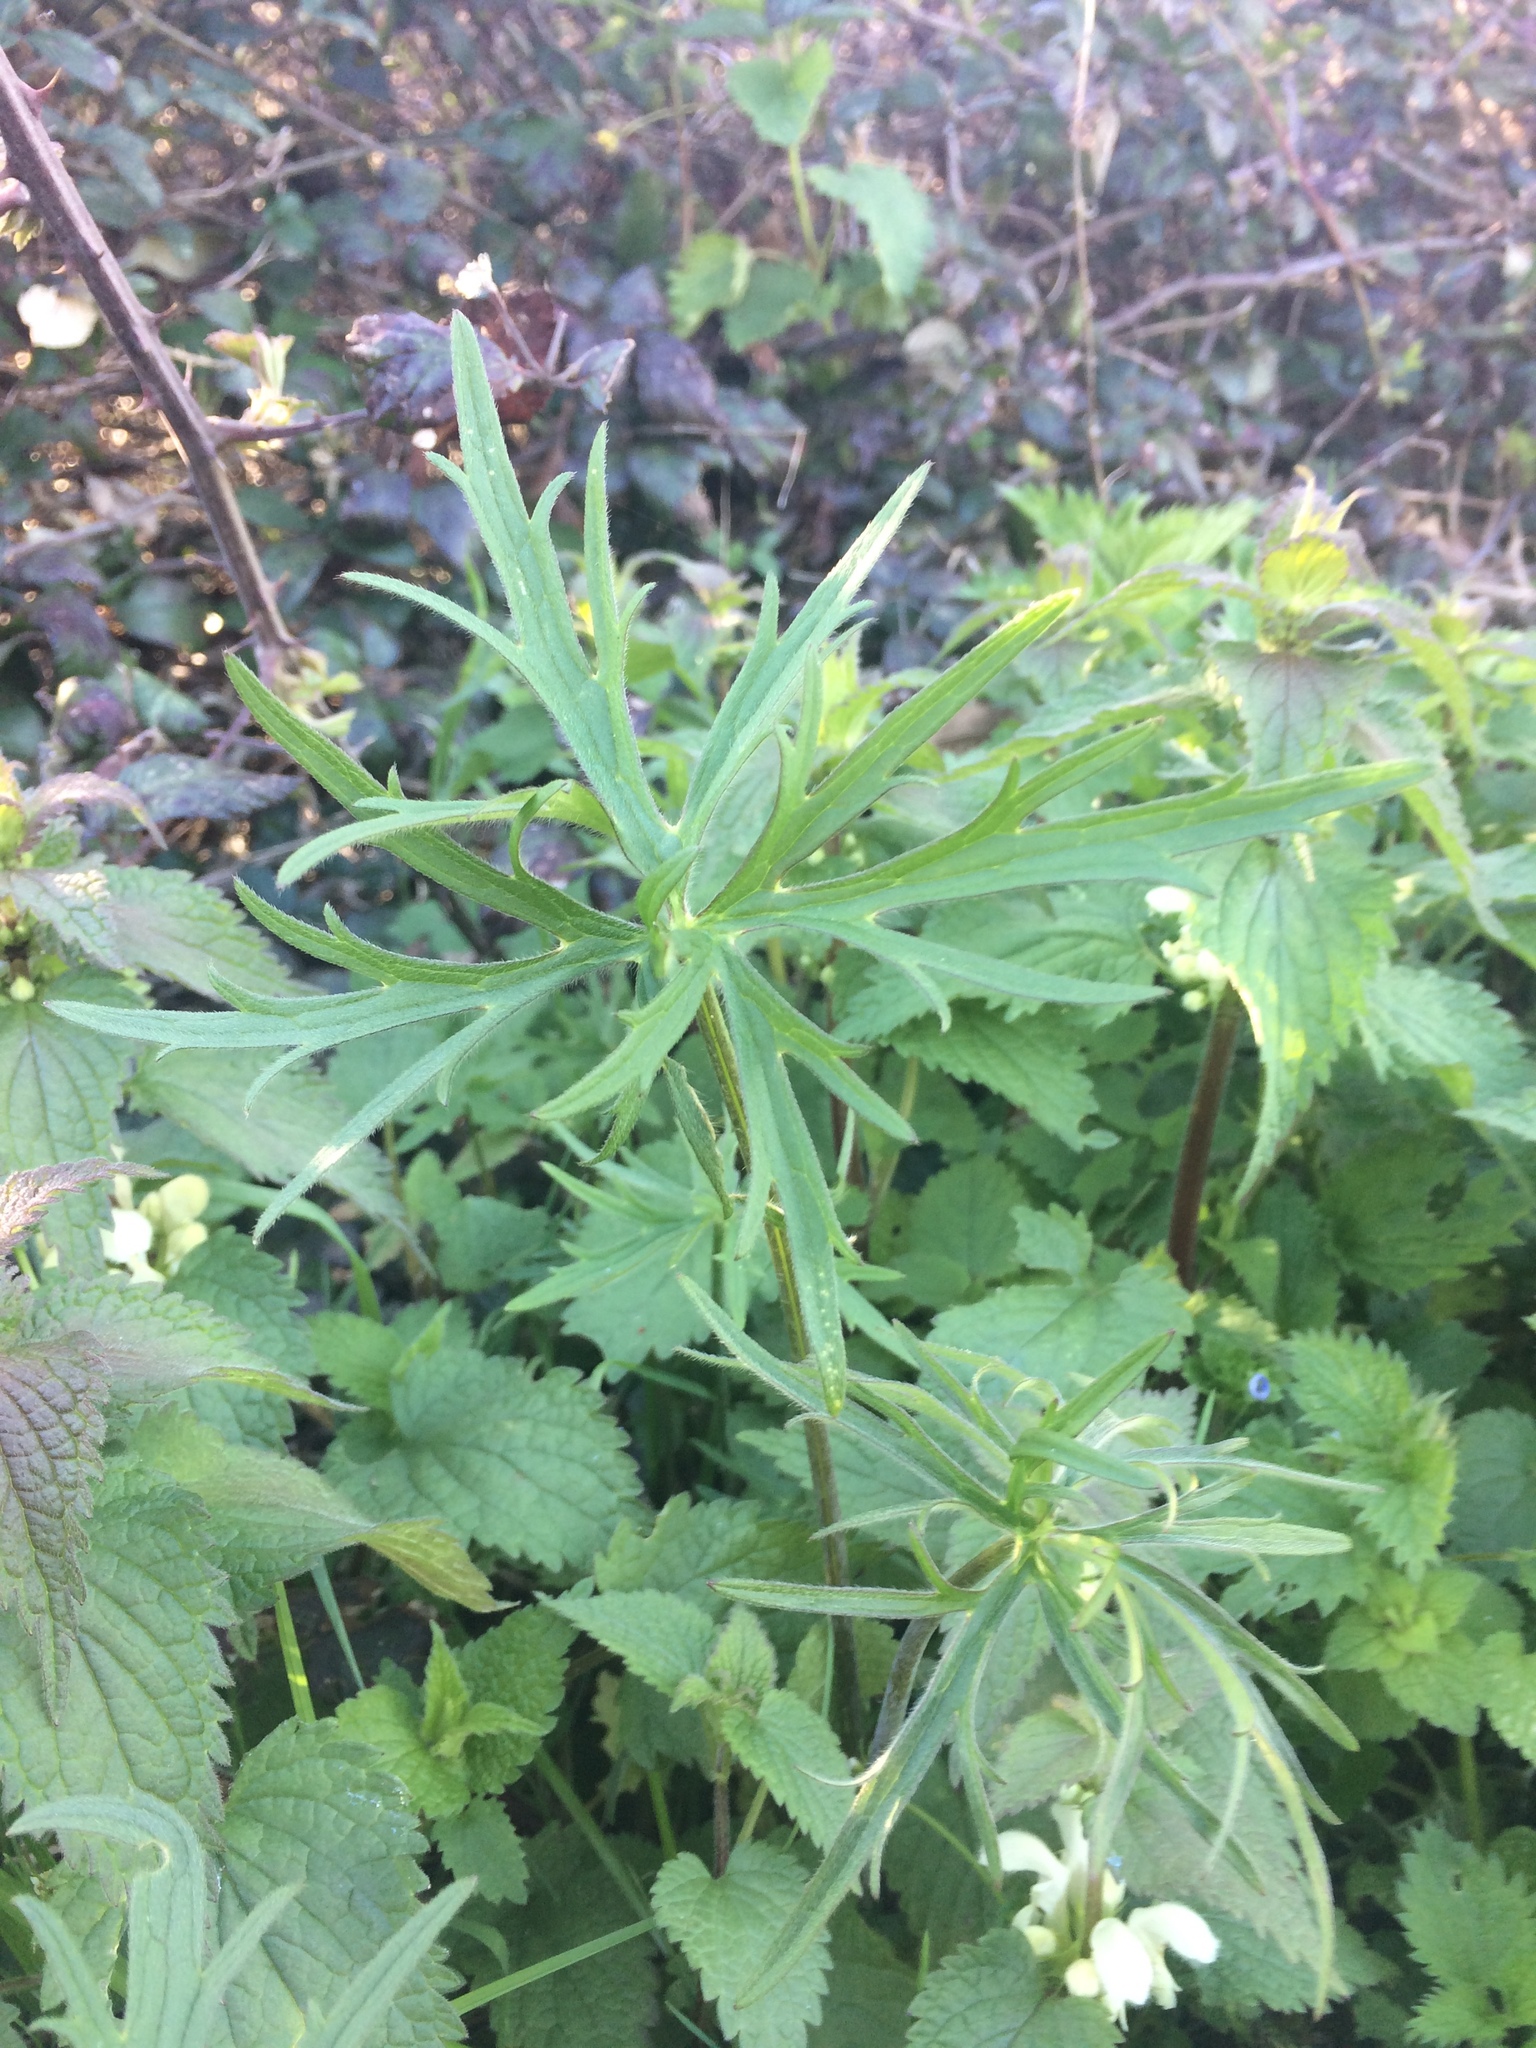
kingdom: Plantae
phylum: Tracheophyta
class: Magnoliopsida
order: Ranunculales
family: Ranunculaceae
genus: Ranunculus
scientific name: Ranunculus acris
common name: Meadow buttercup
